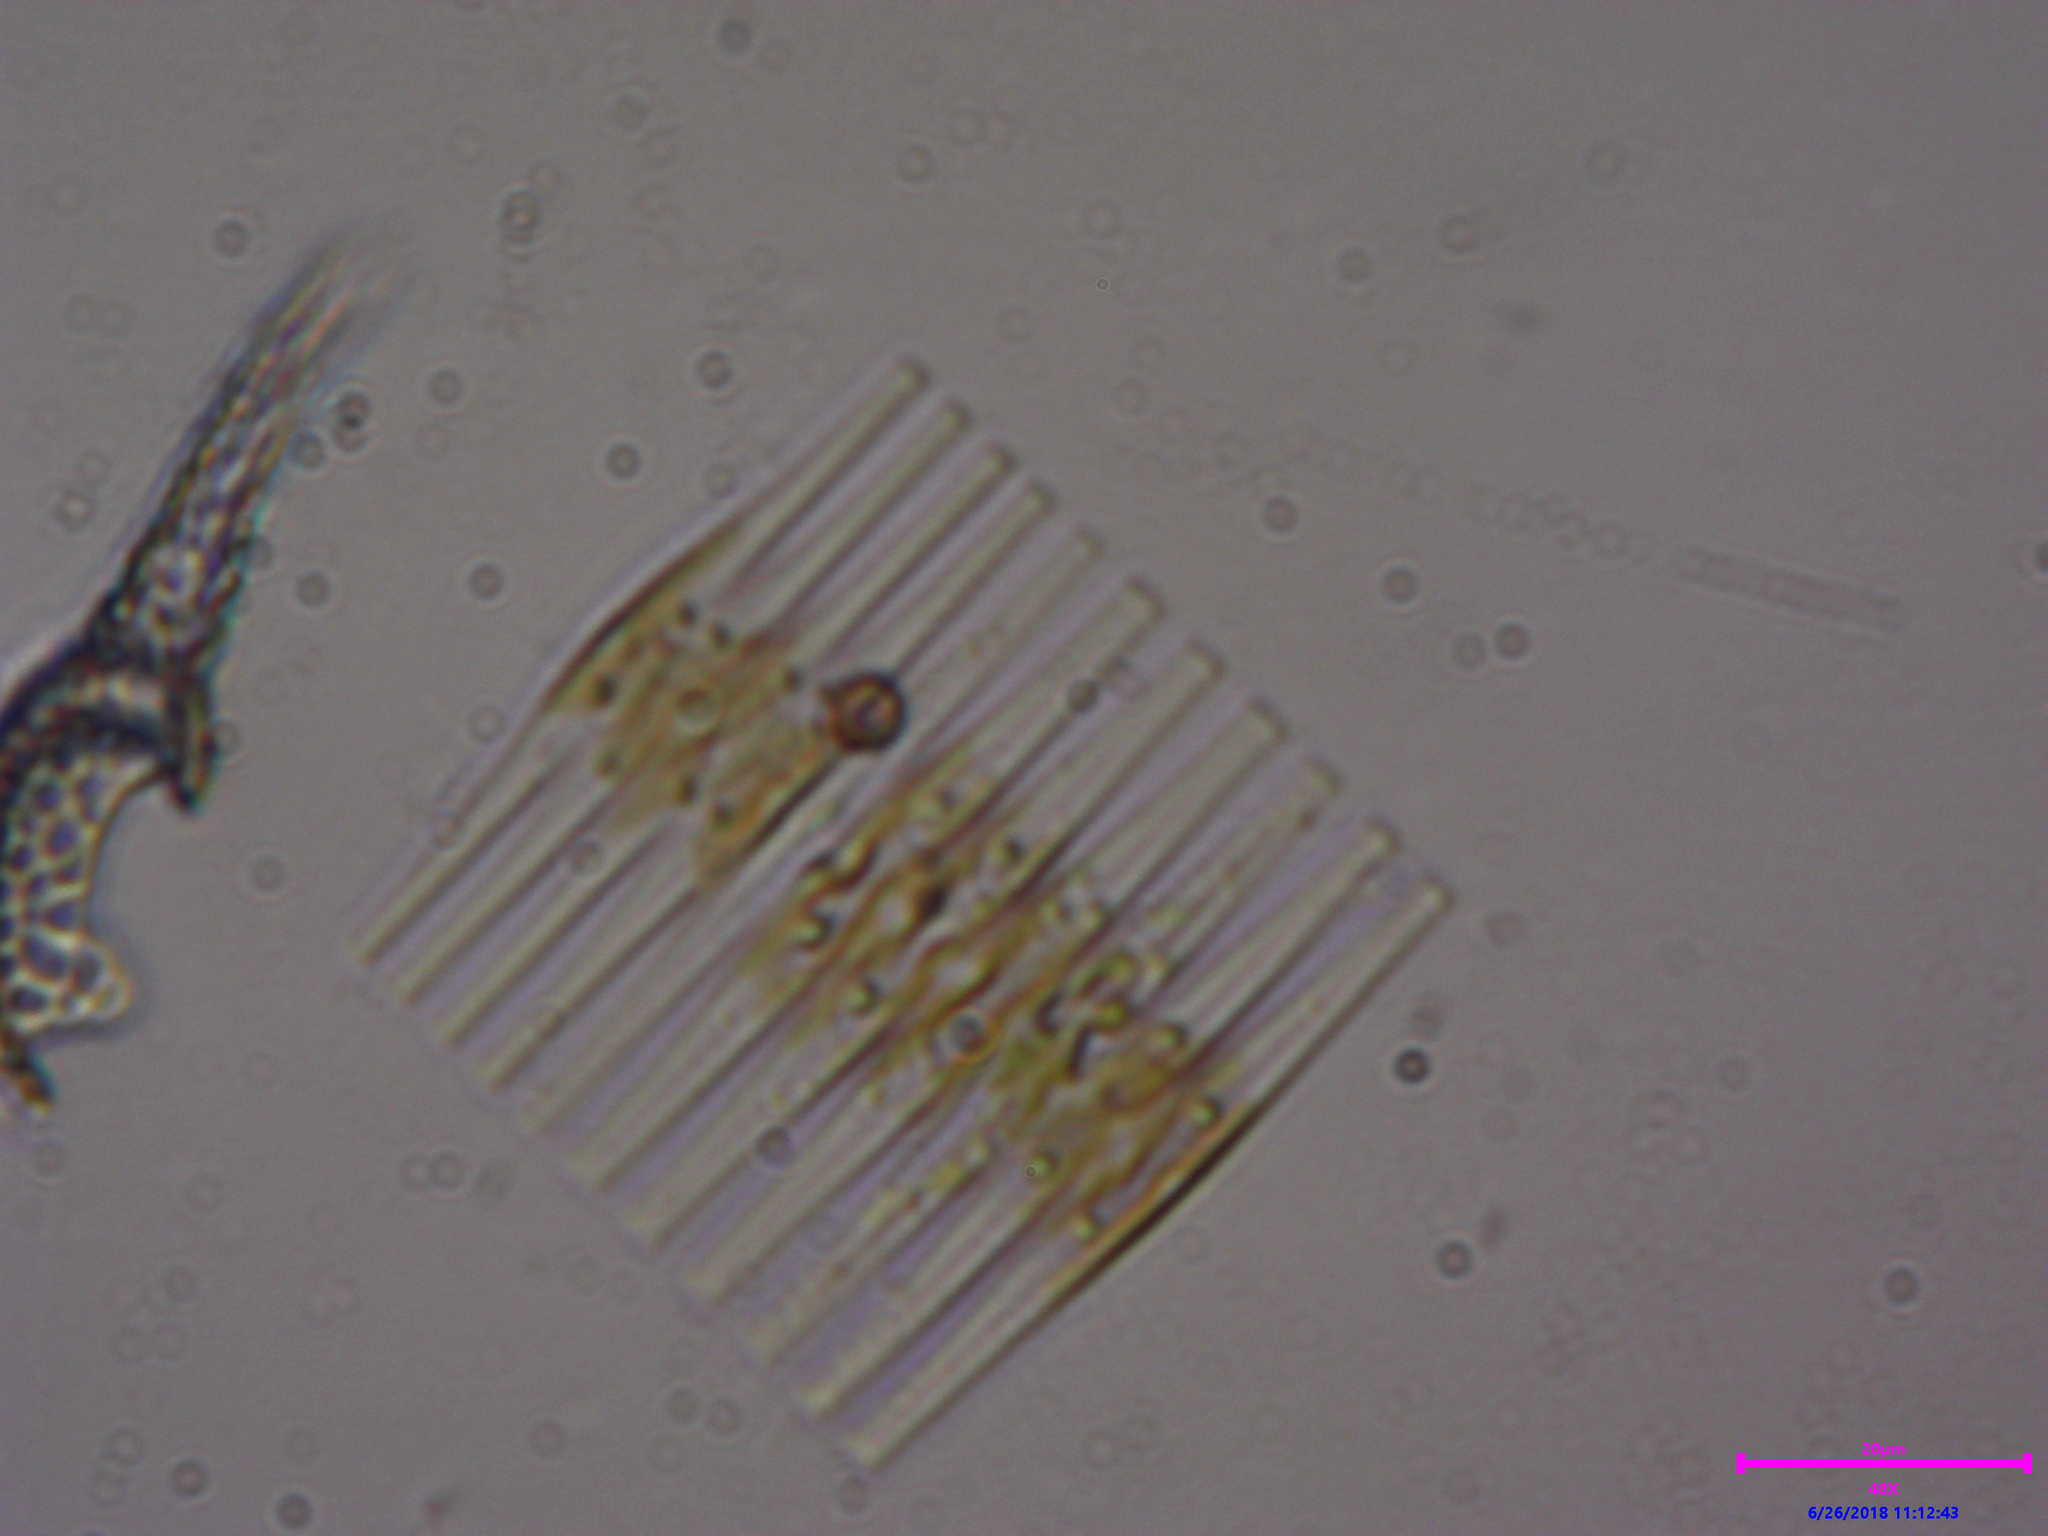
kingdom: Chromista
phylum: Ochrophyta
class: Bacillariophyceae
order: Fragilariales
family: Fragilariaceae
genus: Fragilaria
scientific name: Fragilaria
